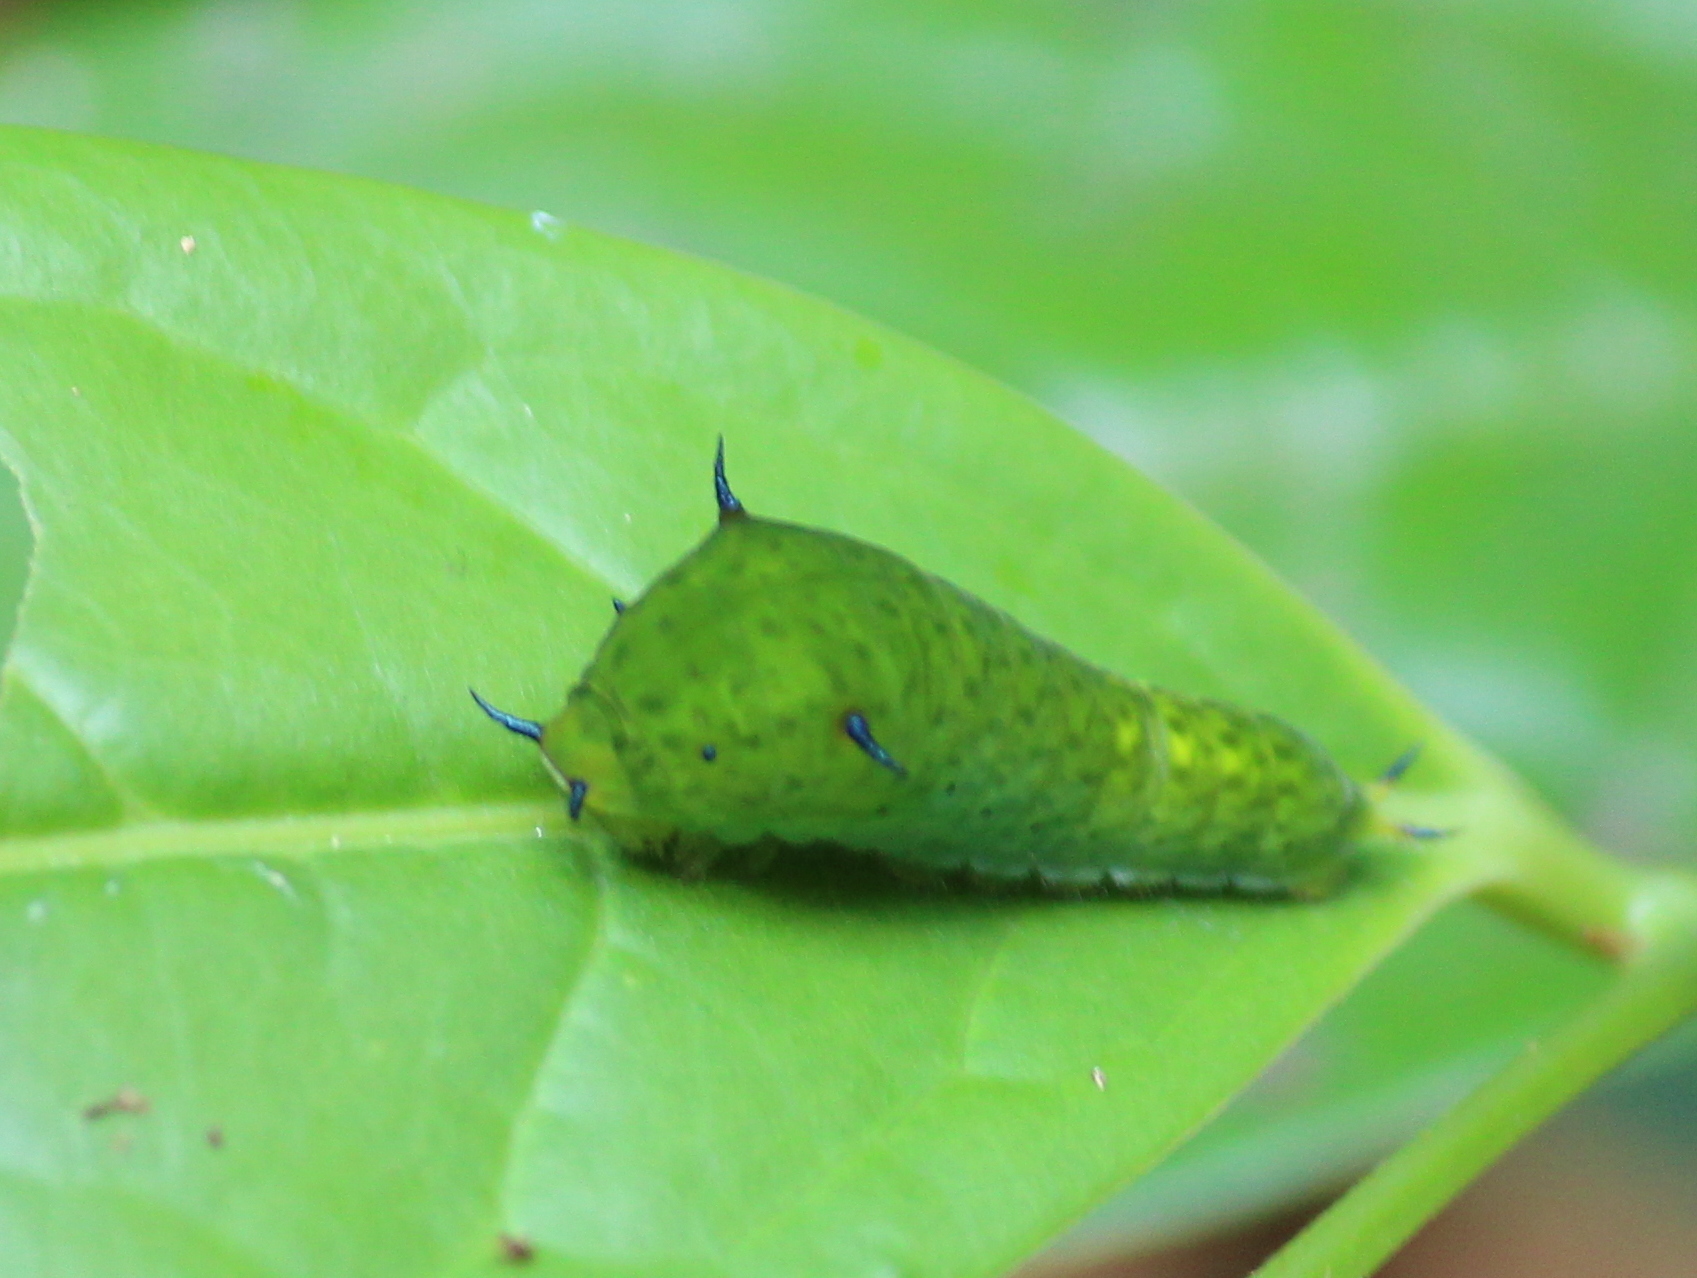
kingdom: Animalia
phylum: Arthropoda
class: Insecta
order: Lepidoptera
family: Papilionidae
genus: Graphium
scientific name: Graphium agamemnon
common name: Tailed jay
